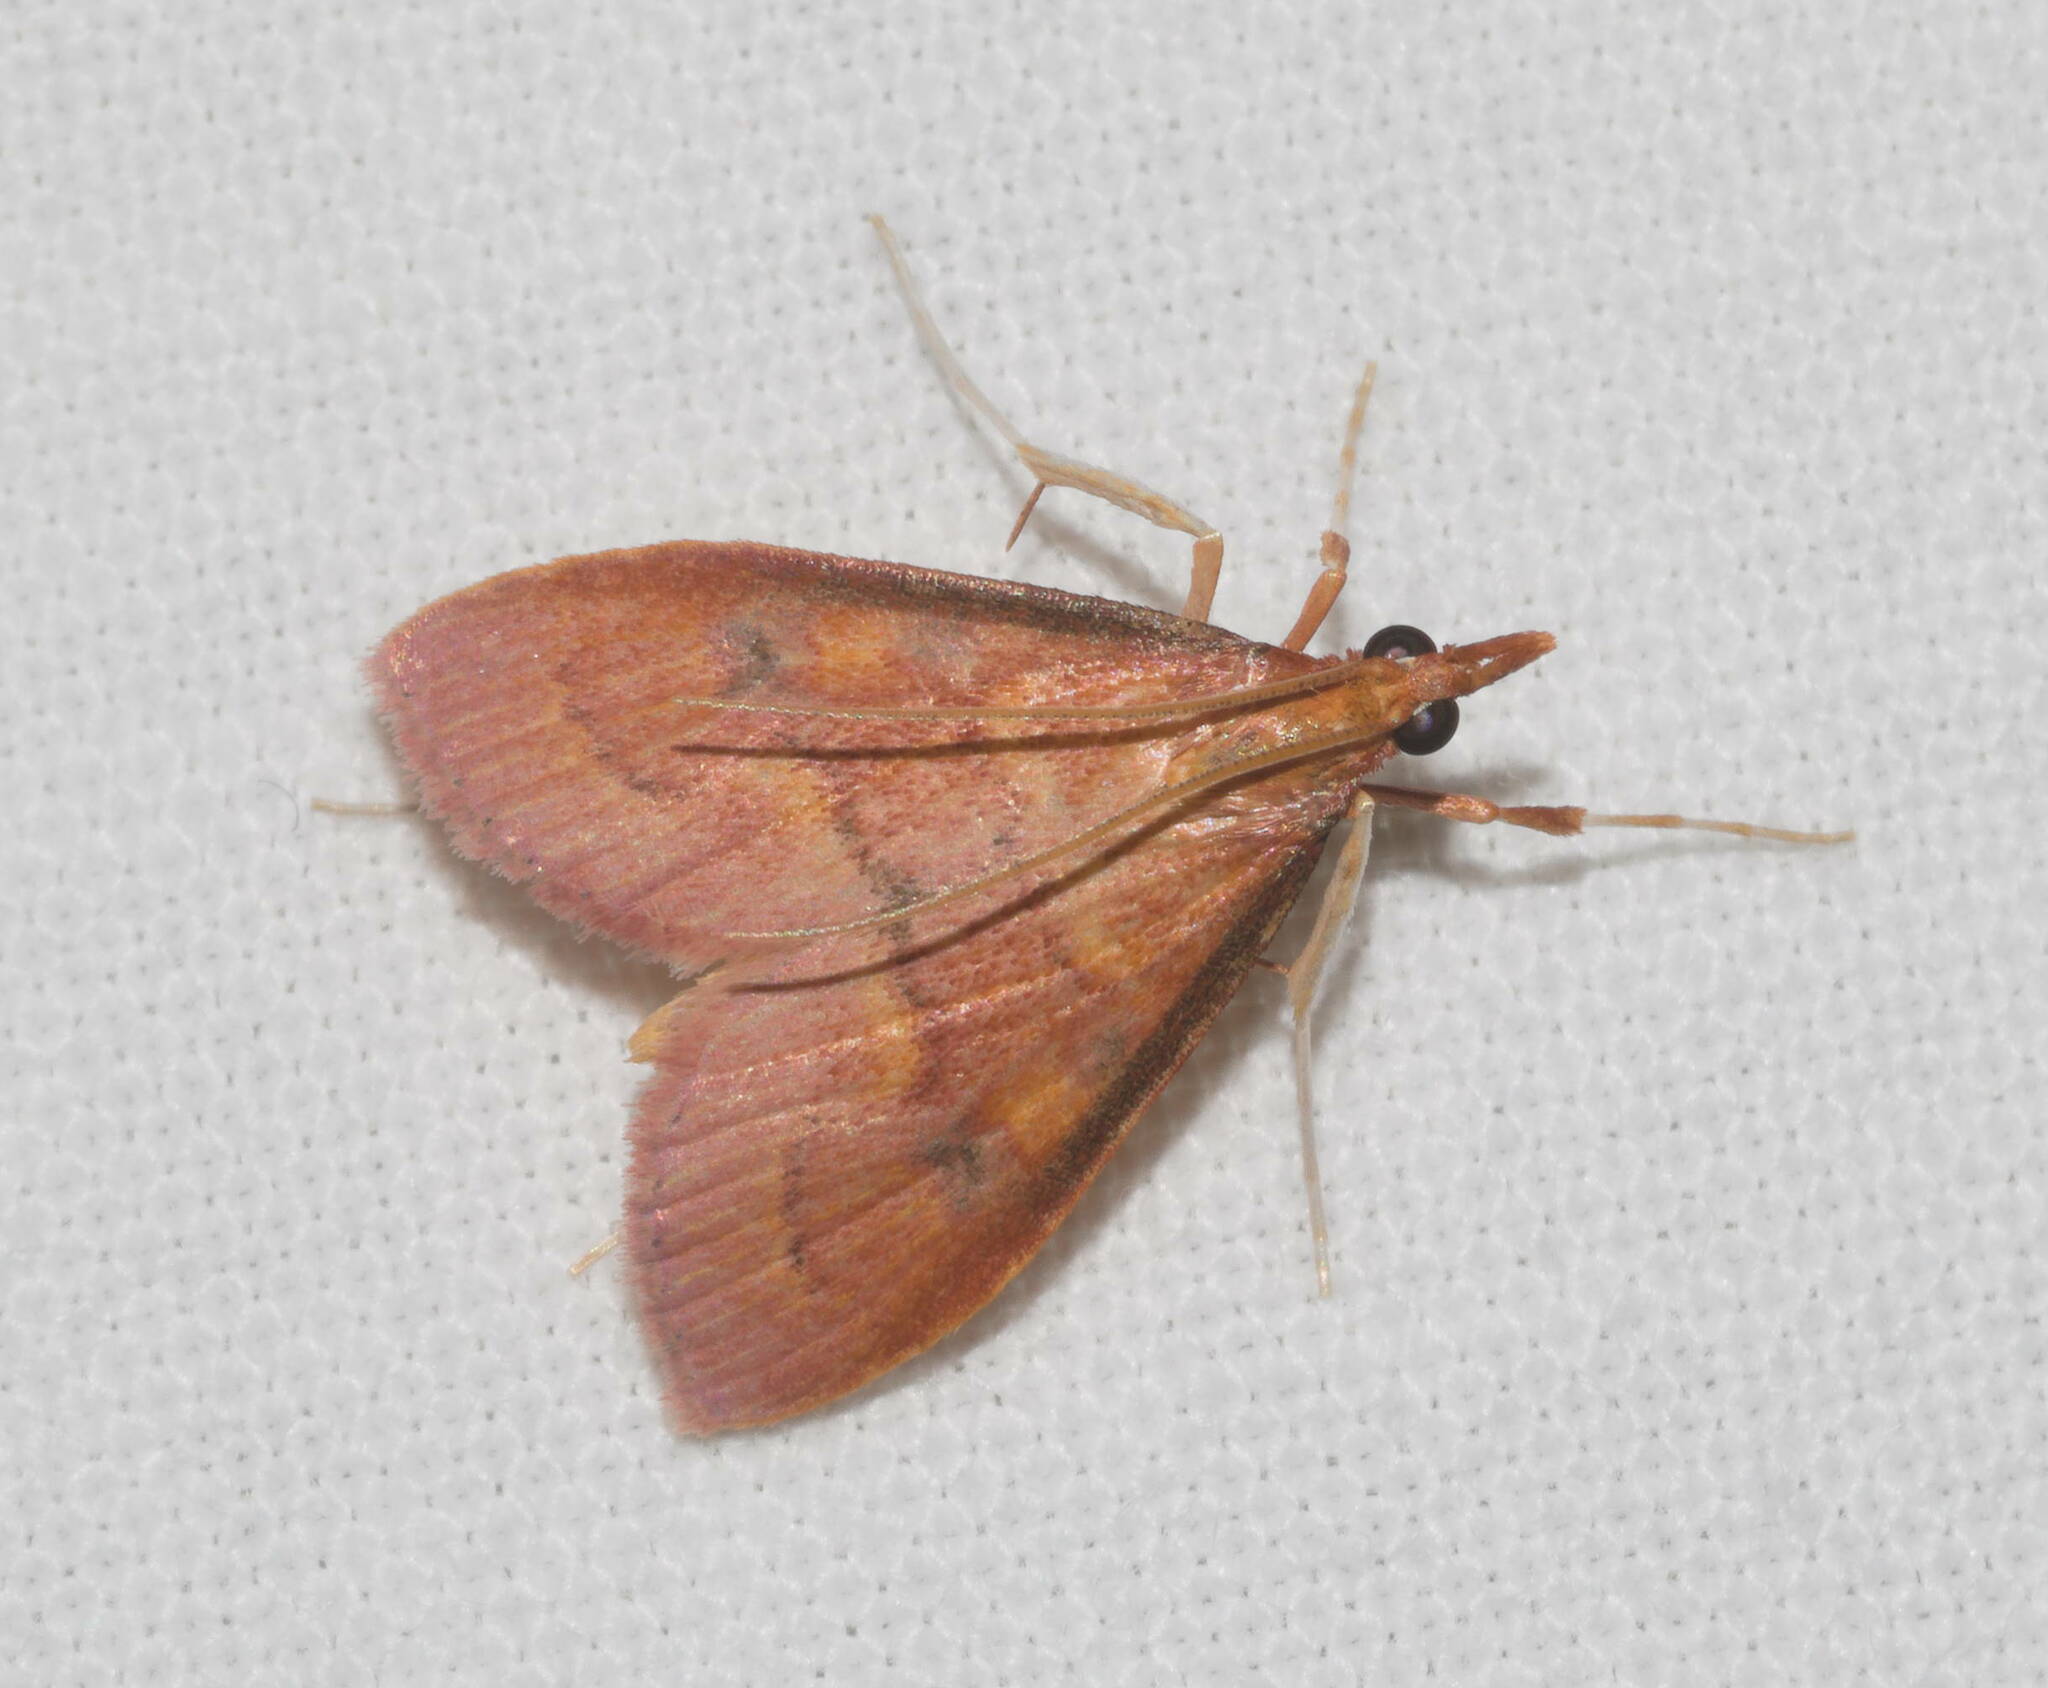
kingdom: Animalia
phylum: Arthropoda
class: Insecta
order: Lepidoptera
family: Crambidae
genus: Udea
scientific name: Udea liopis
